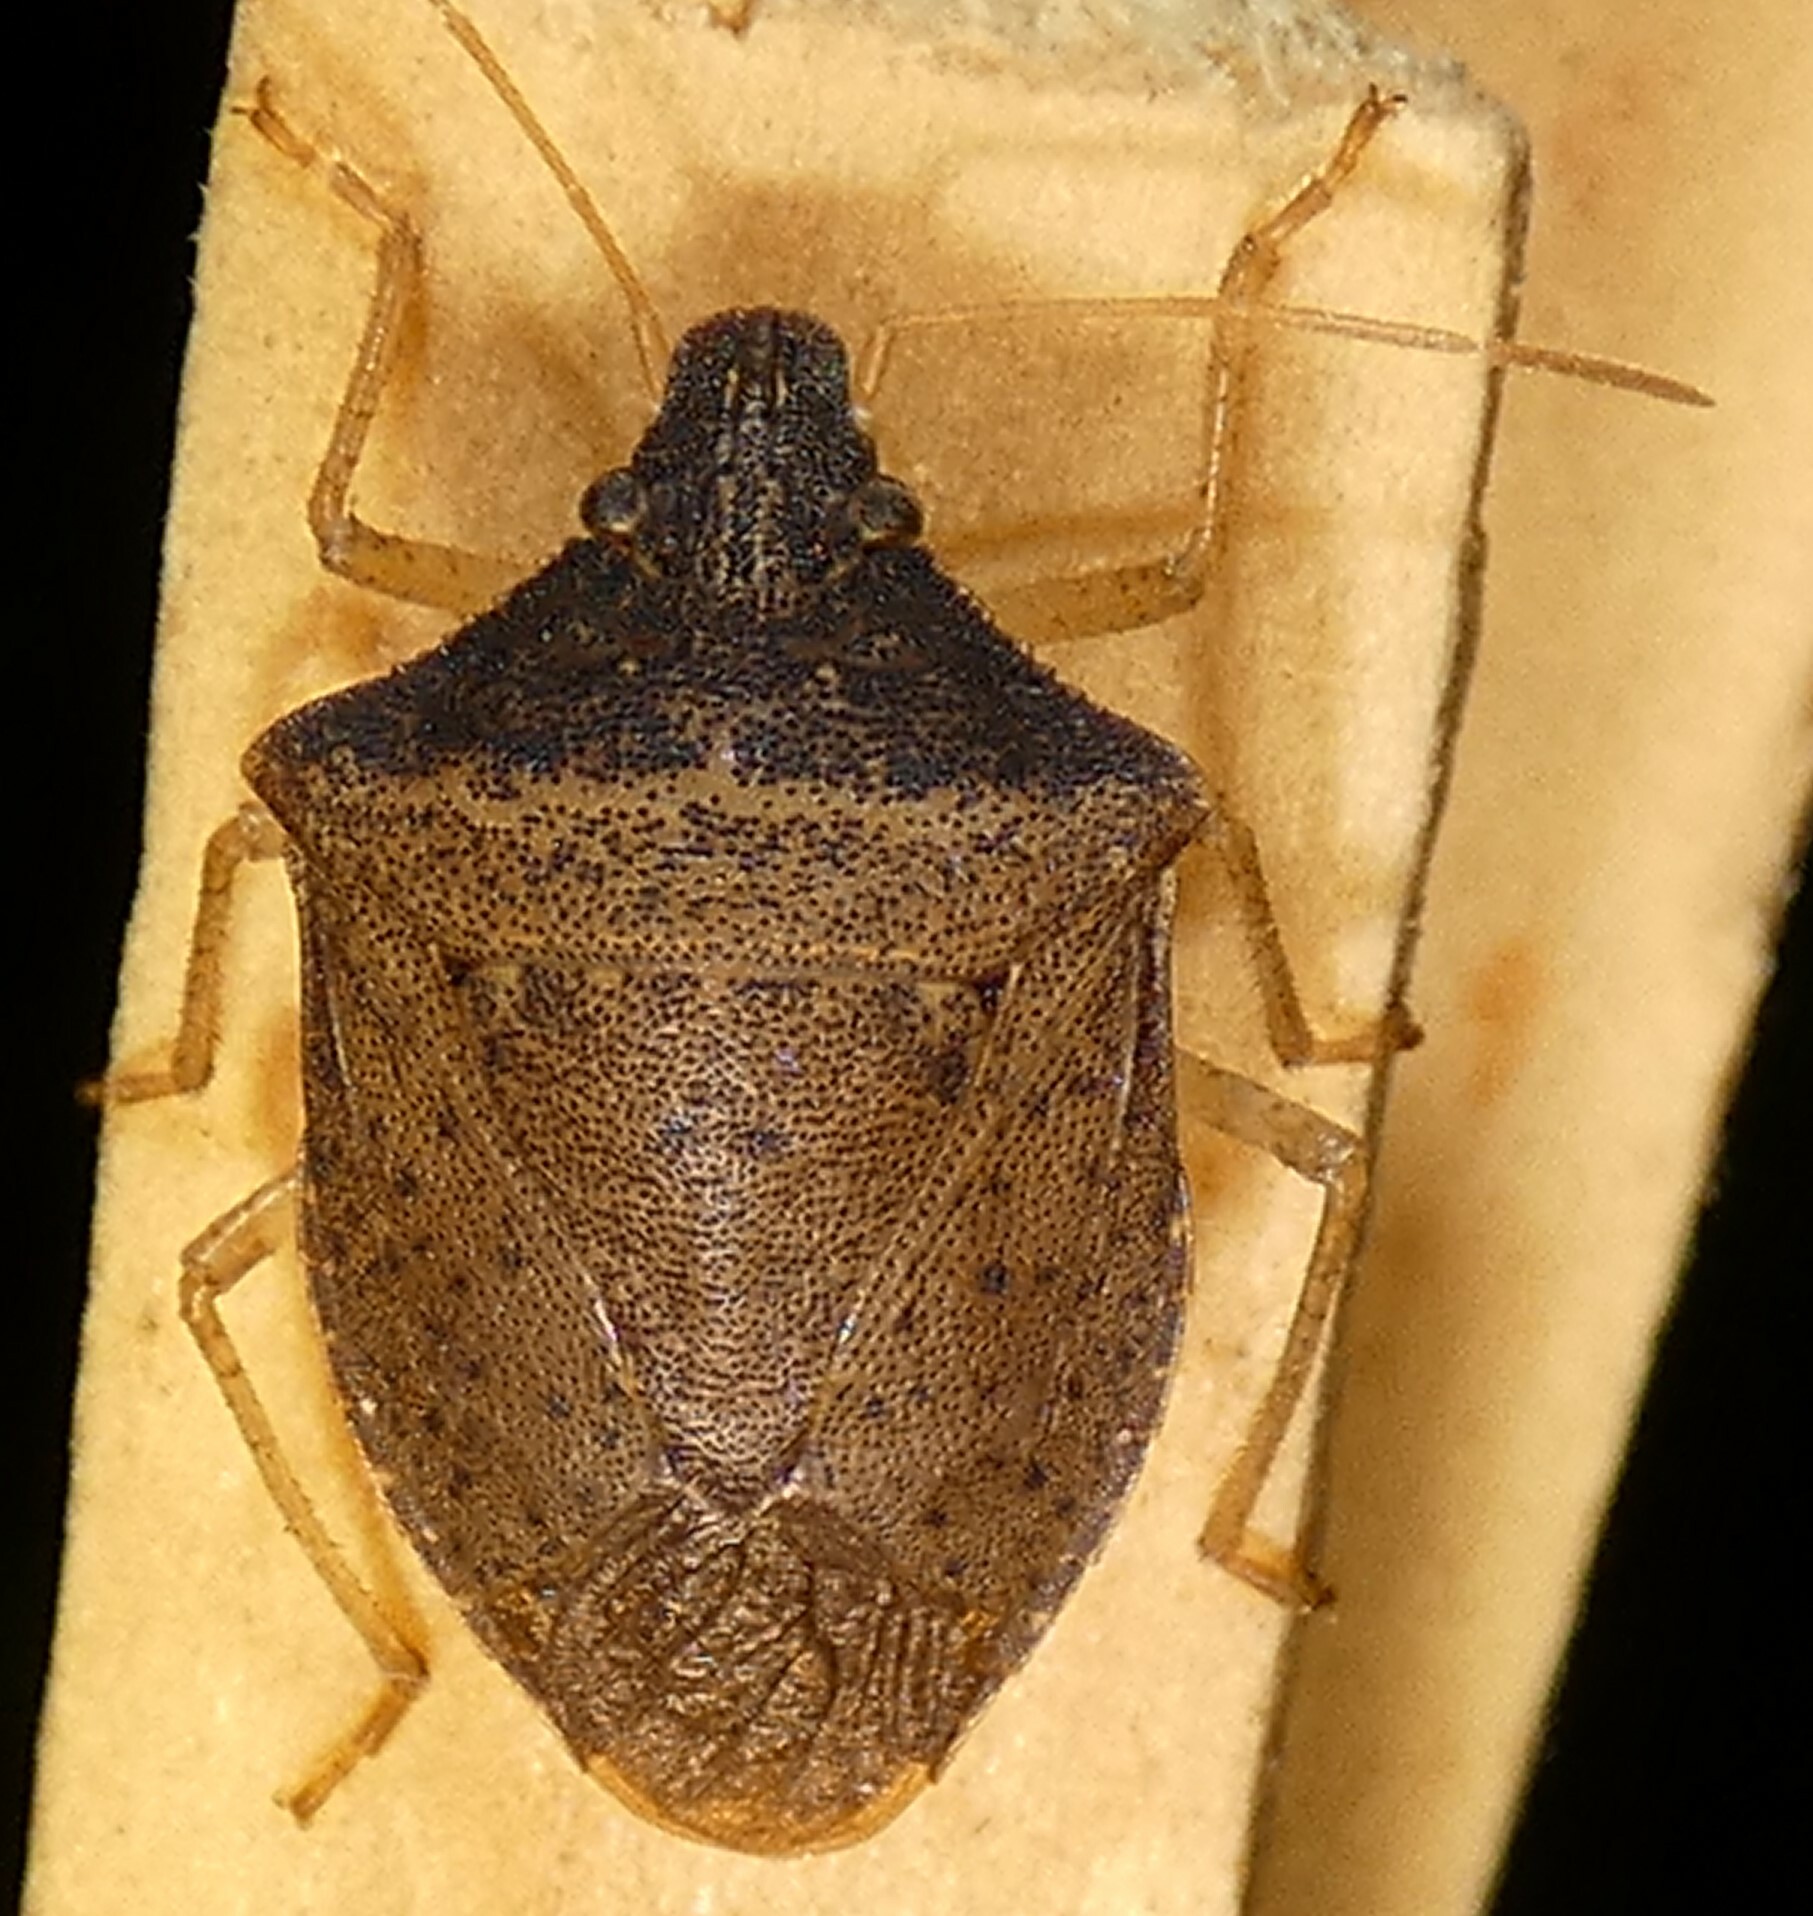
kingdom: Animalia
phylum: Arthropoda
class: Insecta
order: Hemiptera
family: Pentatomidae
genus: Euschistus
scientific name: Euschistus obscurus
